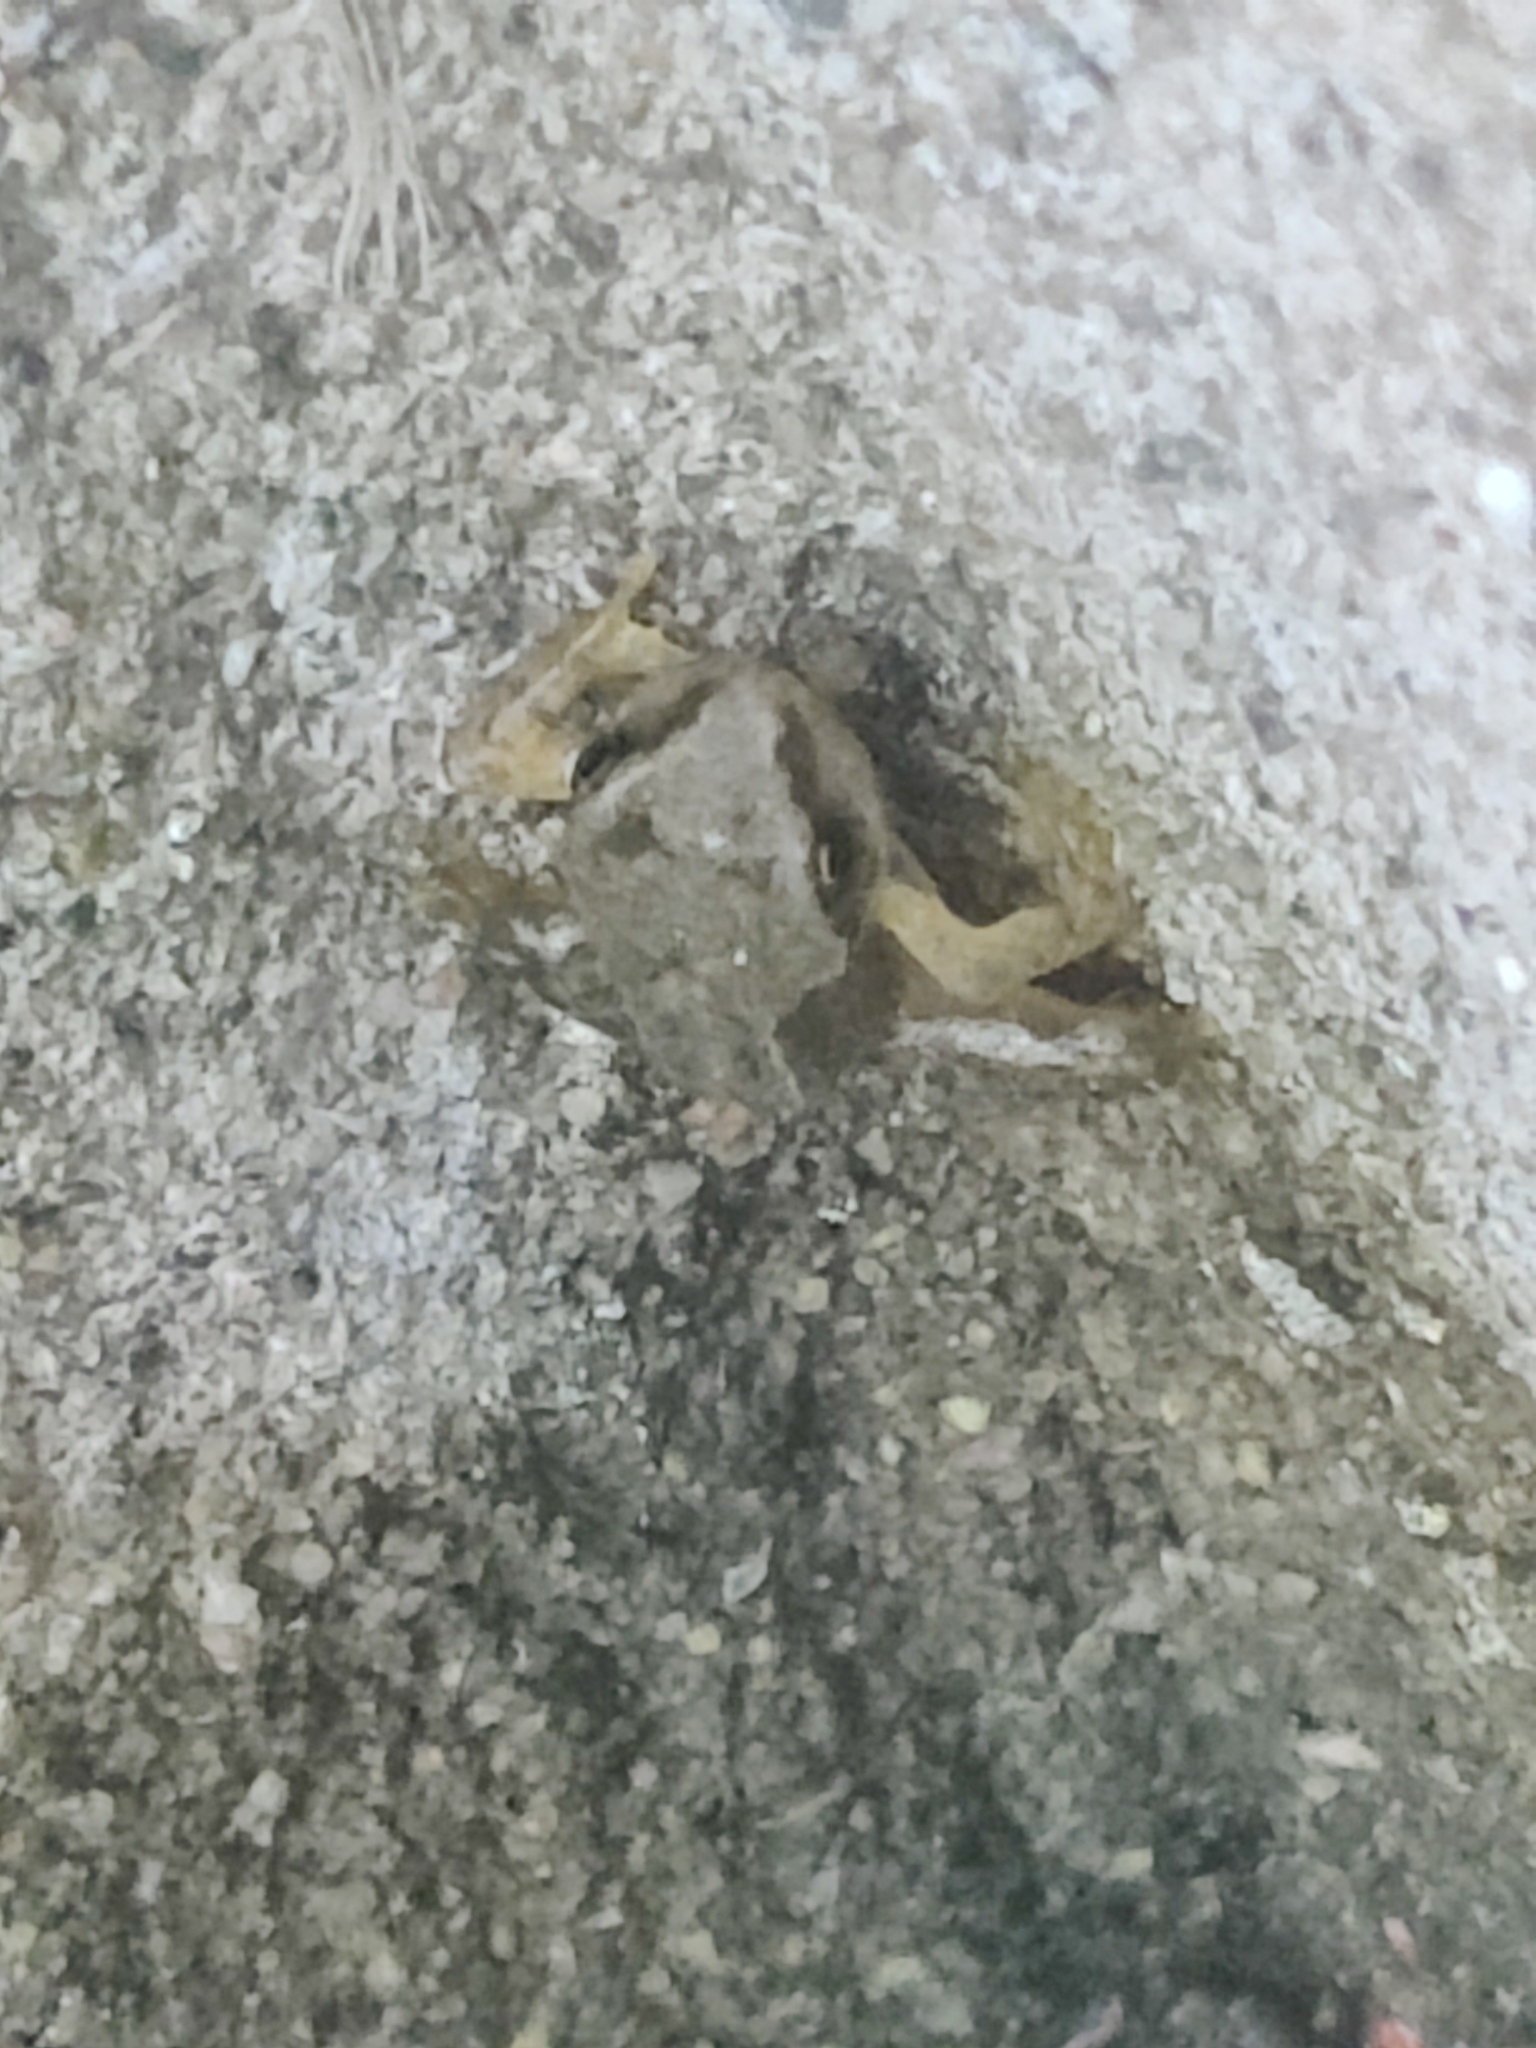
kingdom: Animalia
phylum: Chordata
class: Amphibia
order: Anura
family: Ranidae
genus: Rana
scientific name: Rana temporaria
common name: Common frog
